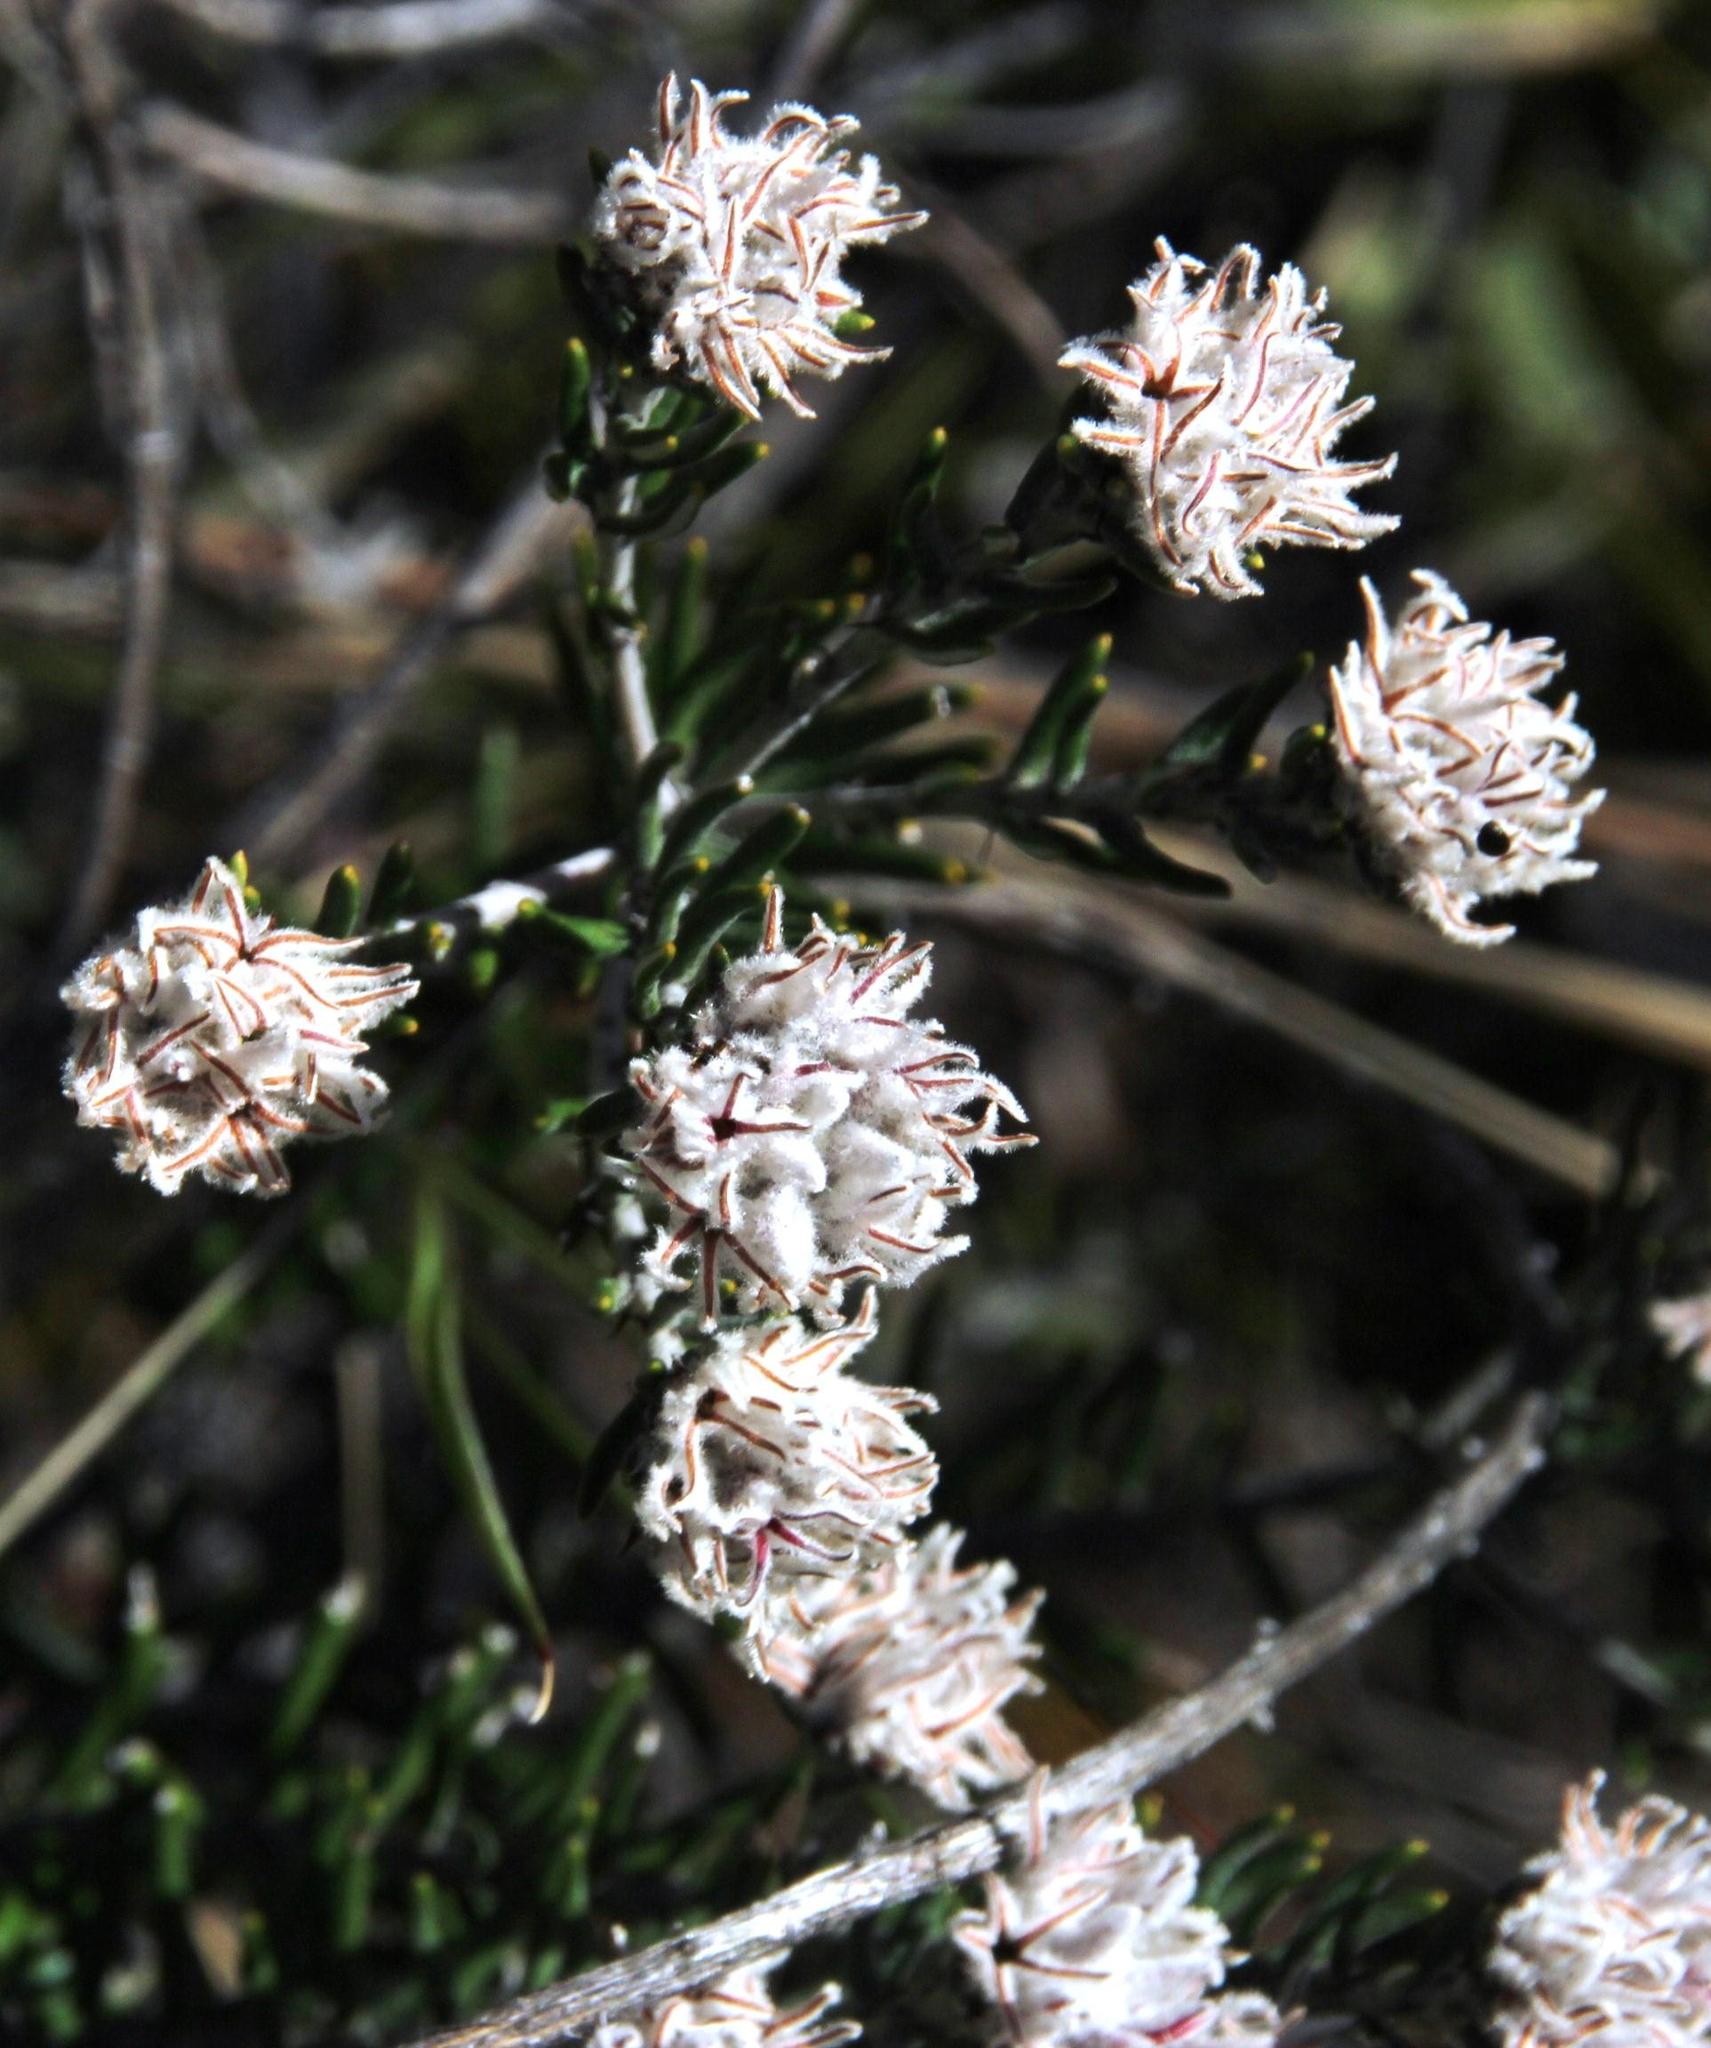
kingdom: Plantae
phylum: Tracheophyta
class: Magnoliopsida
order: Rosales
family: Rhamnaceae
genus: Trichocephalus
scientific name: Trichocephalus stipularis
